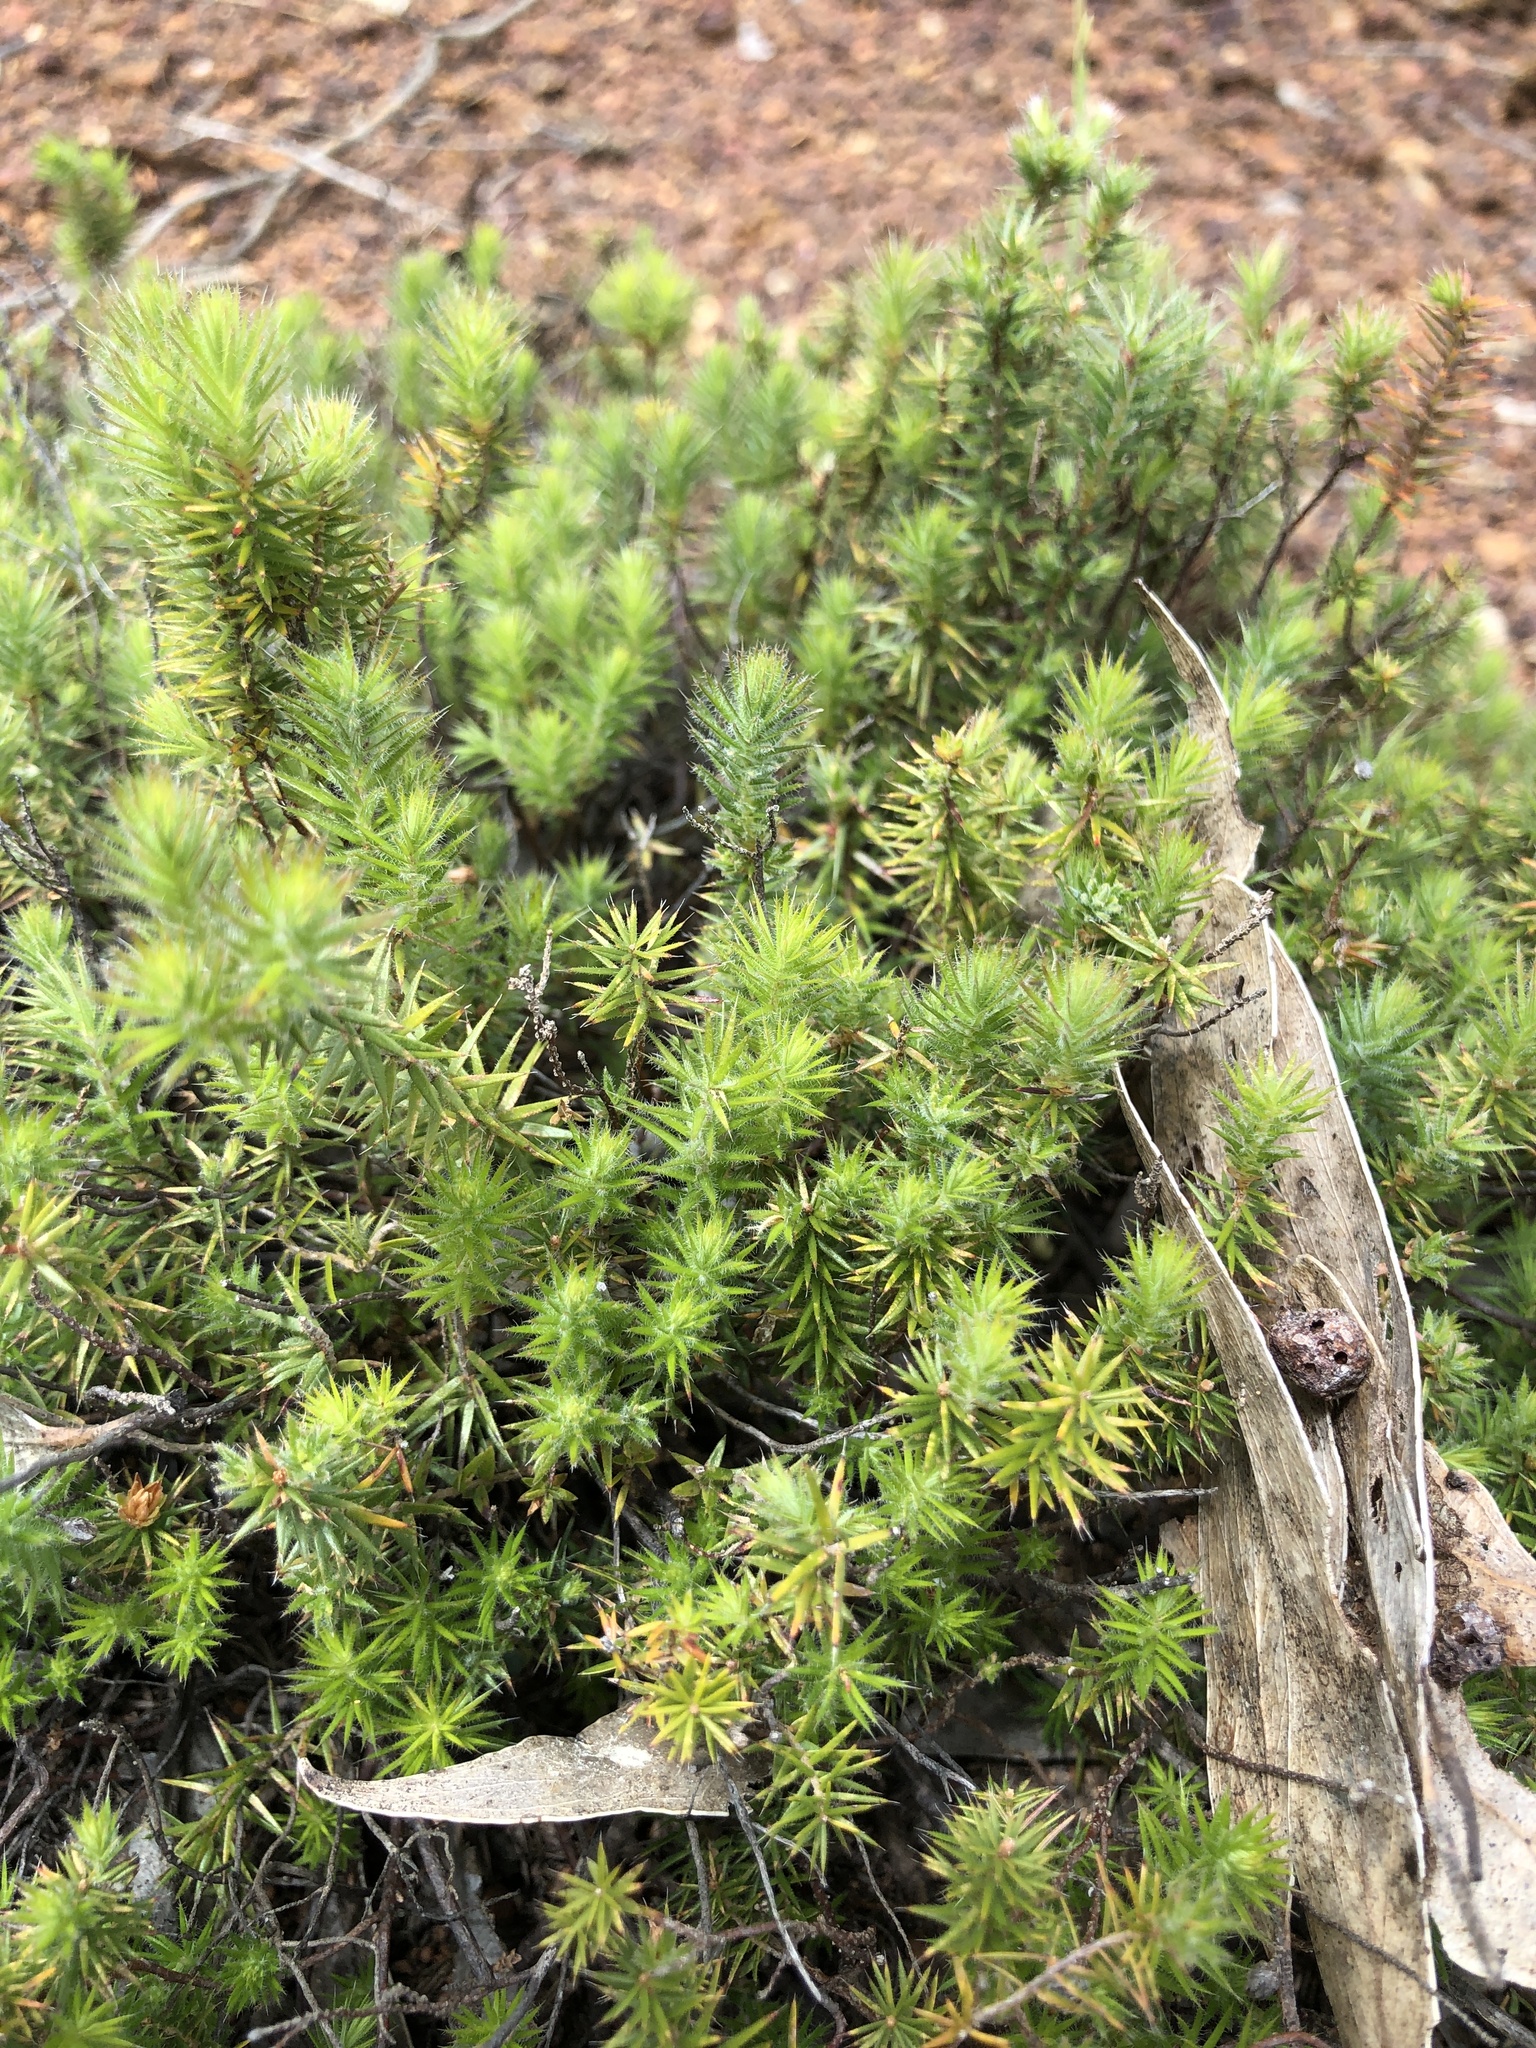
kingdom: Plantae
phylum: Tracheophyta
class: Magnoliopsida
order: Ericales
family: Ericaceae
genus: Acrotriche
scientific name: Acrotriche serrulata
